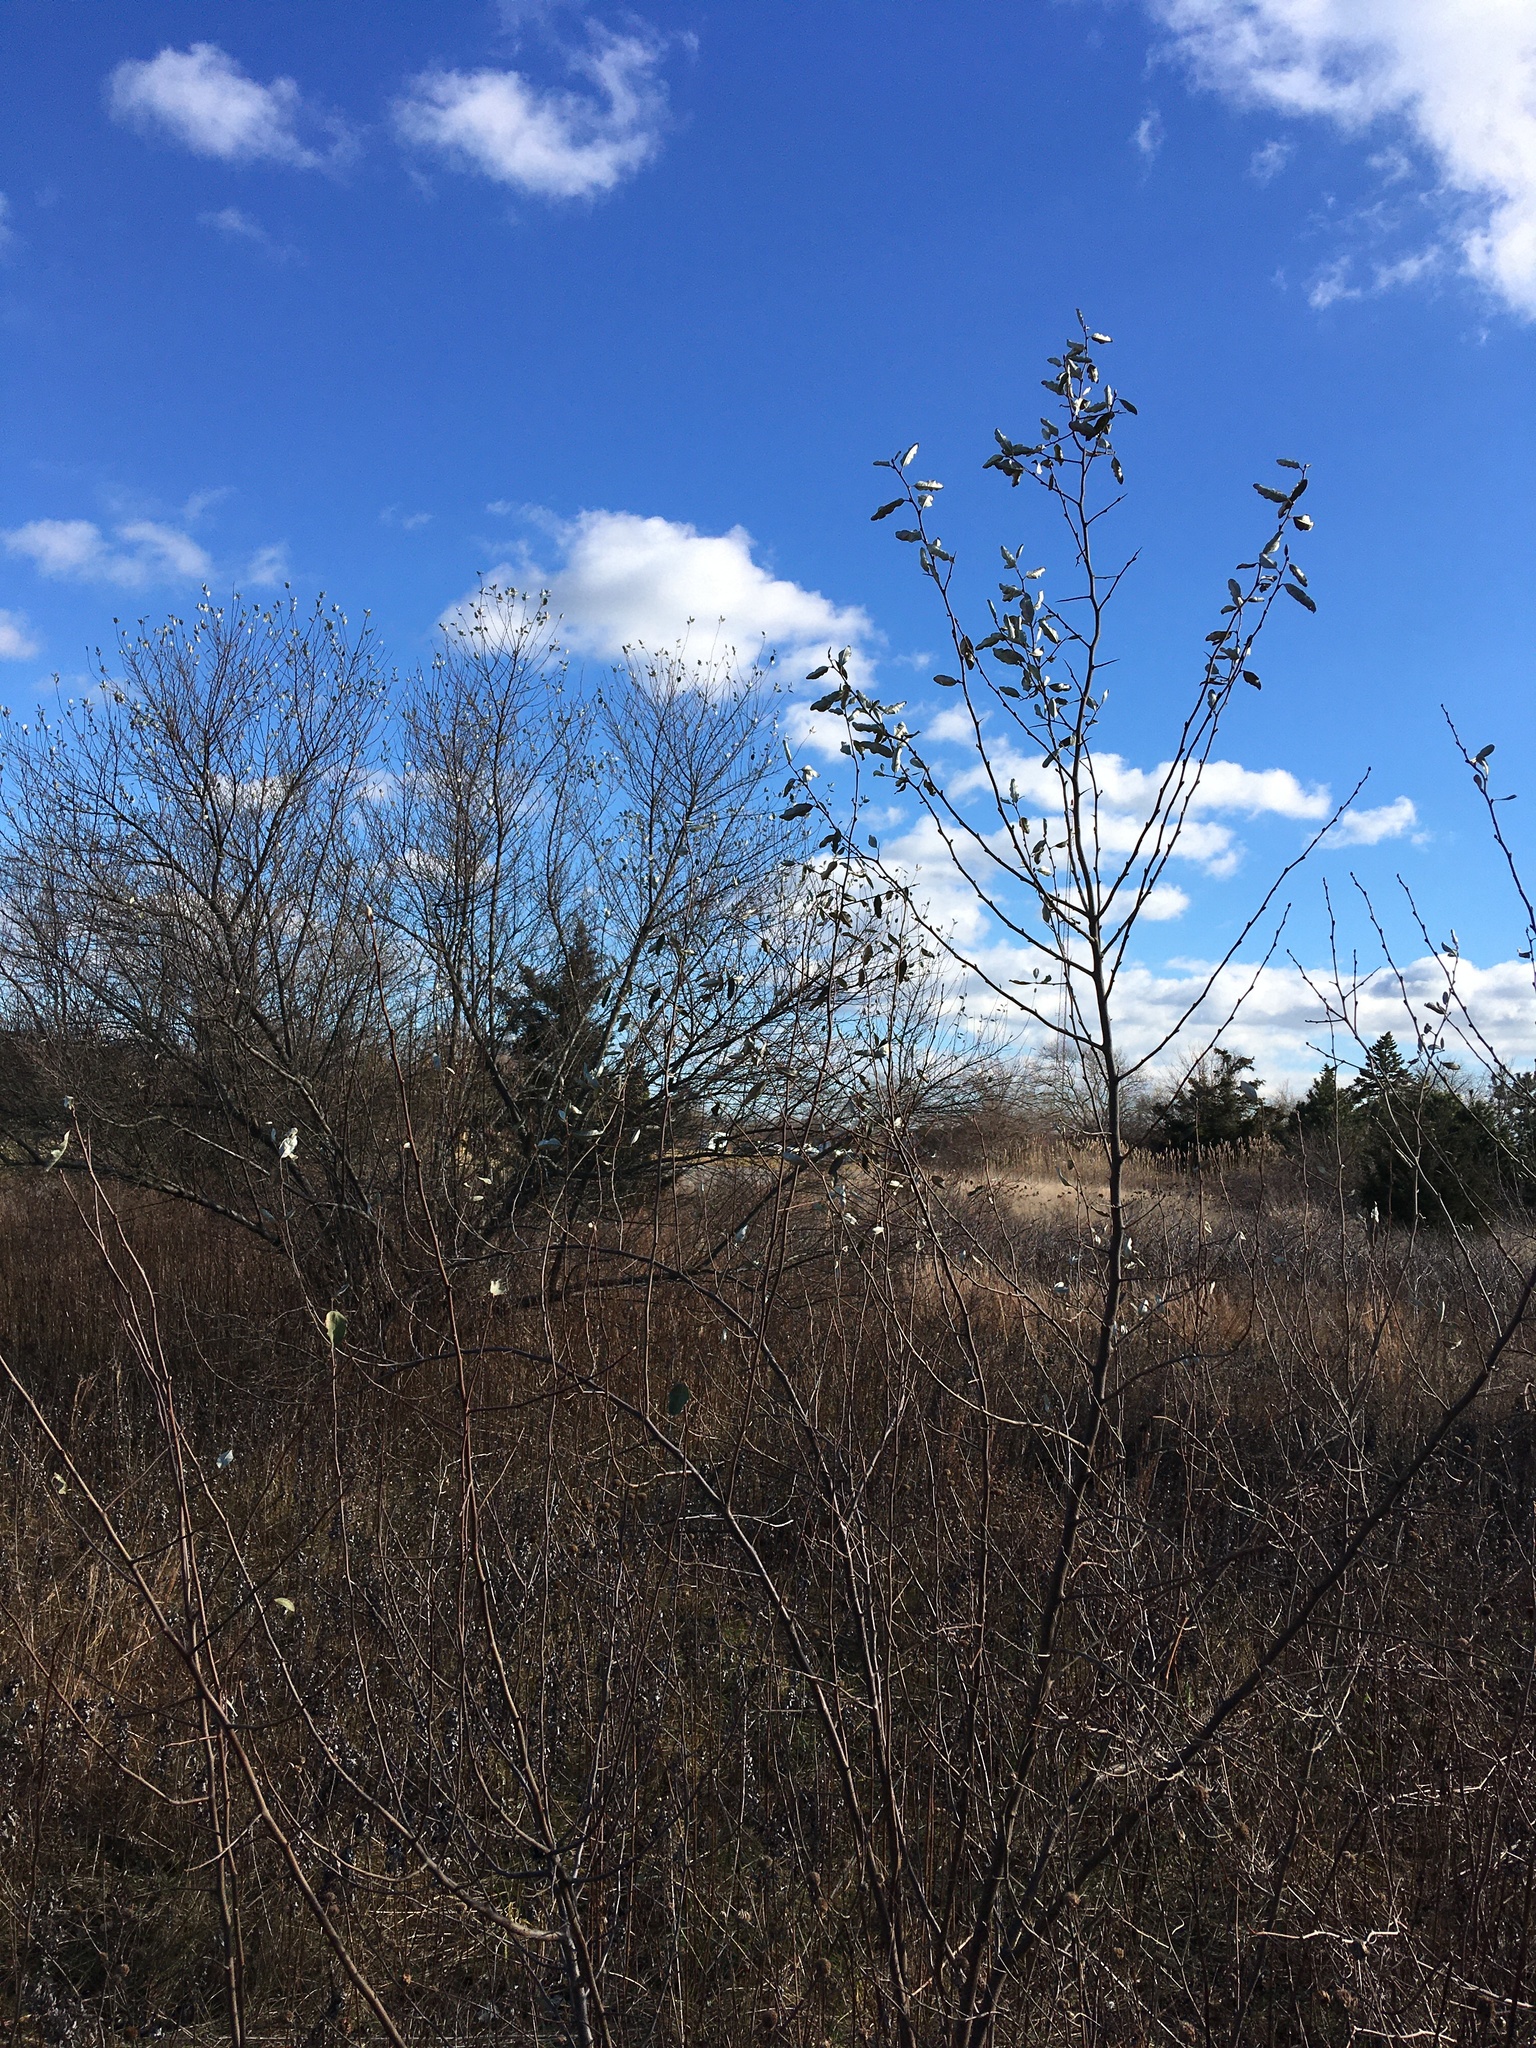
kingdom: Plantae
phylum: Tracheophyta
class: Magnoliopsida
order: Sapindales
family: Anacardiaceae
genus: Rhus
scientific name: Rhus copallina
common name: Shining sumac
